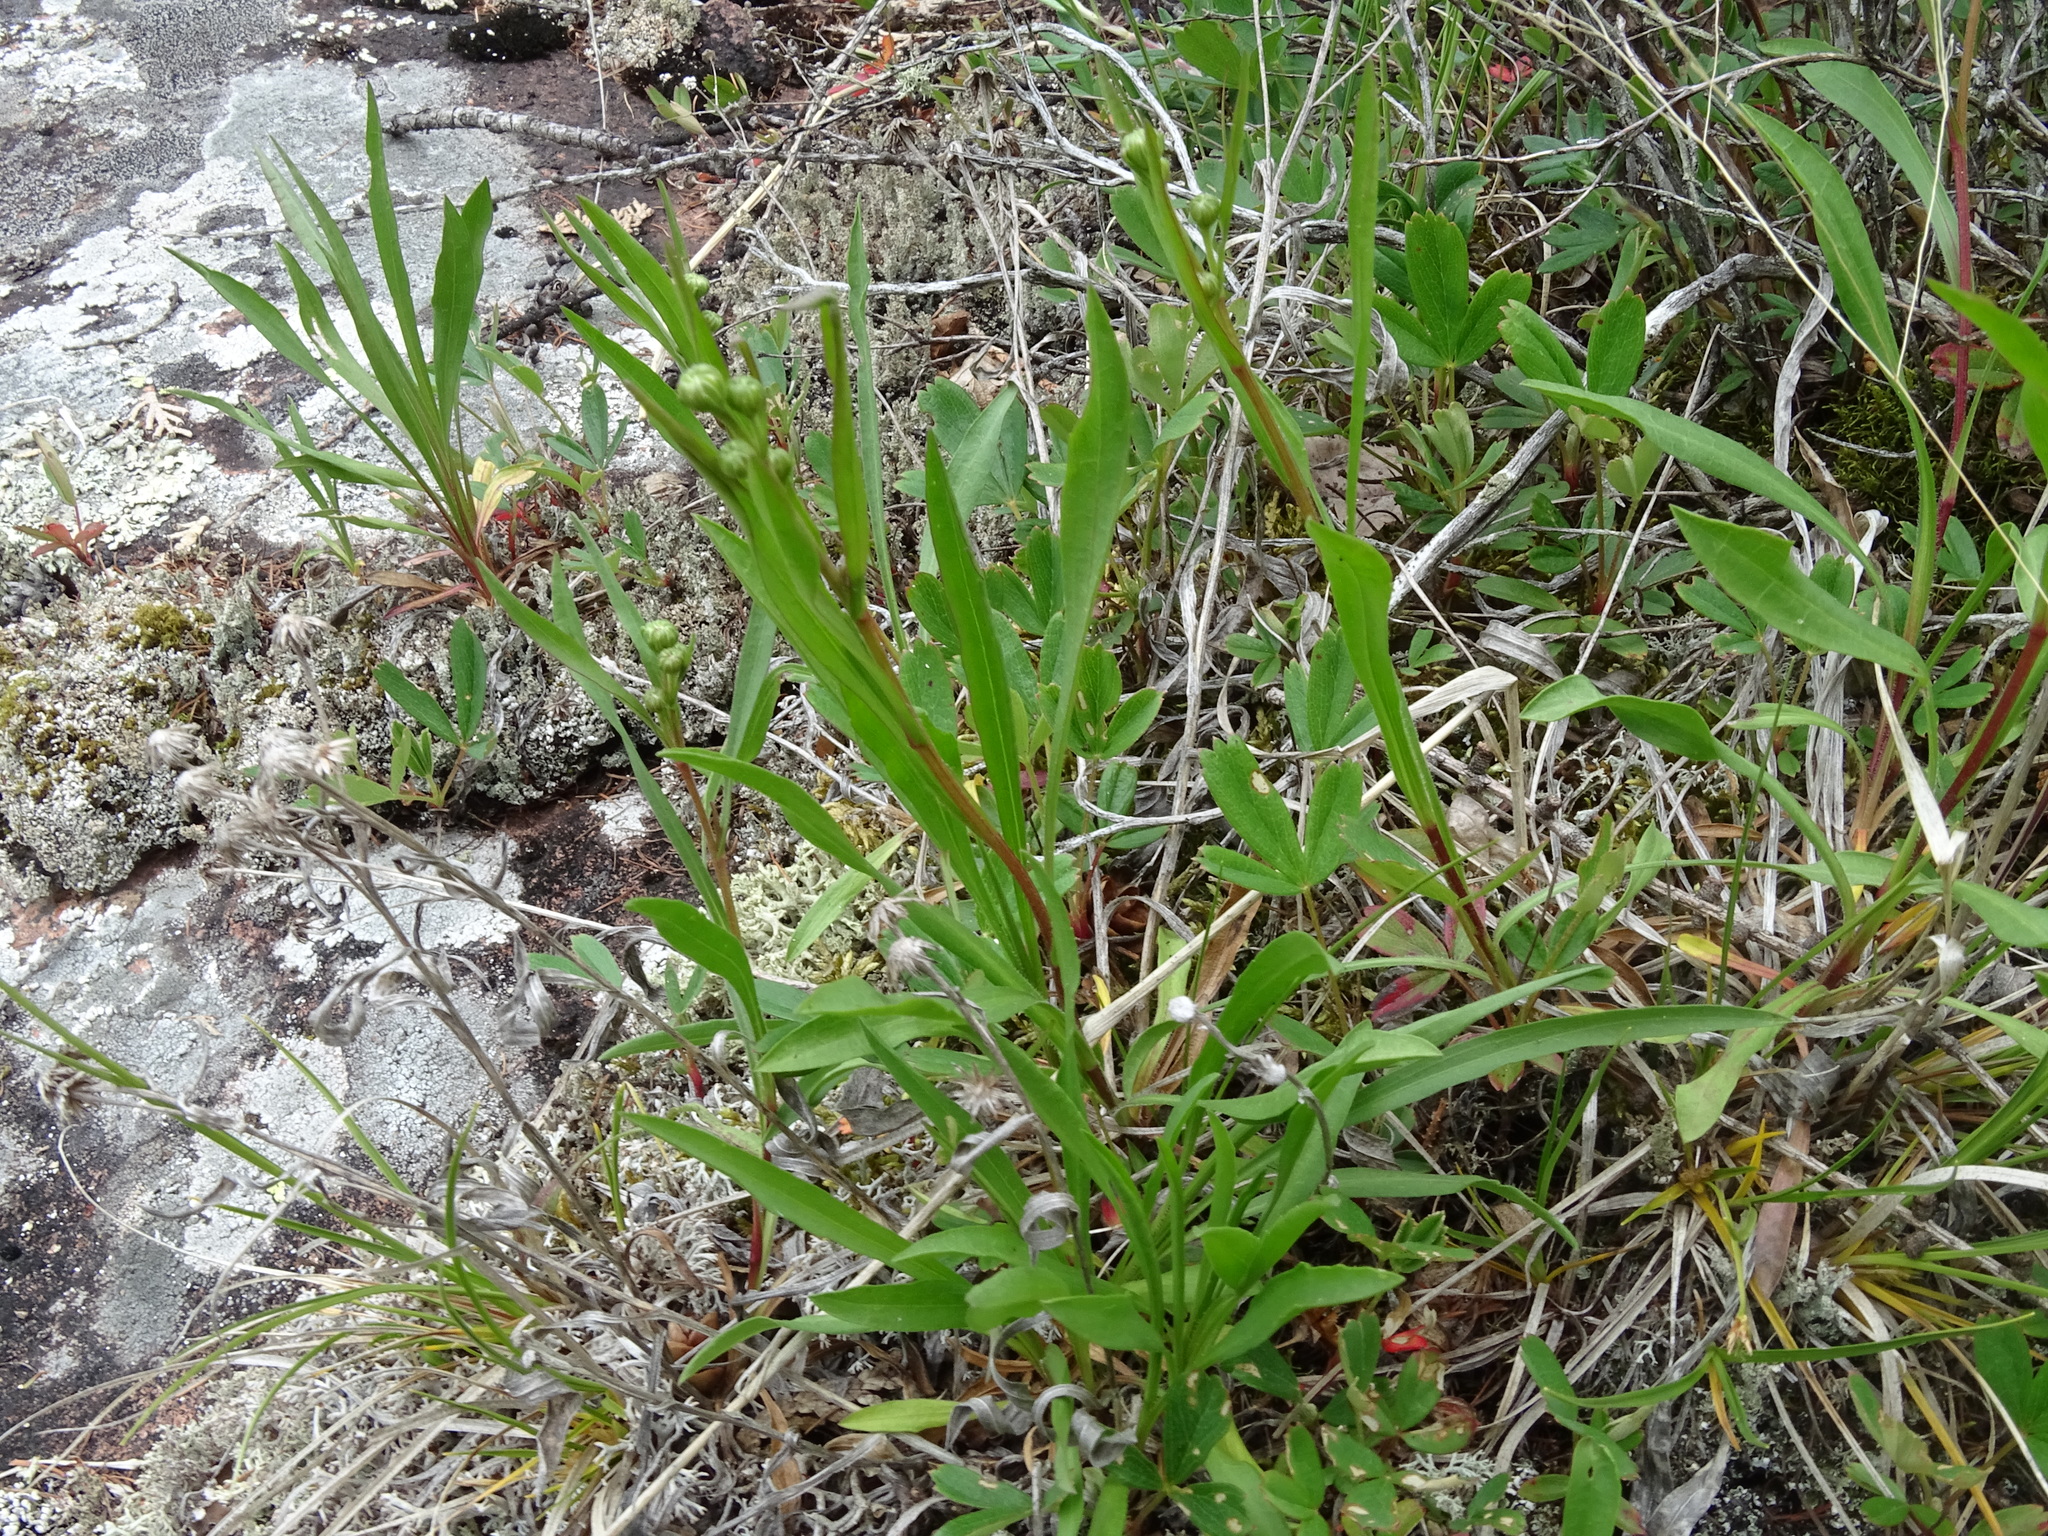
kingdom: Plantae
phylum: Tracheophyta
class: Magnoliopsida
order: Asterales
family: Asteraceae
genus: Solidago
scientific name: Solidago ptarmicoides
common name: White flat-top goldenrod
